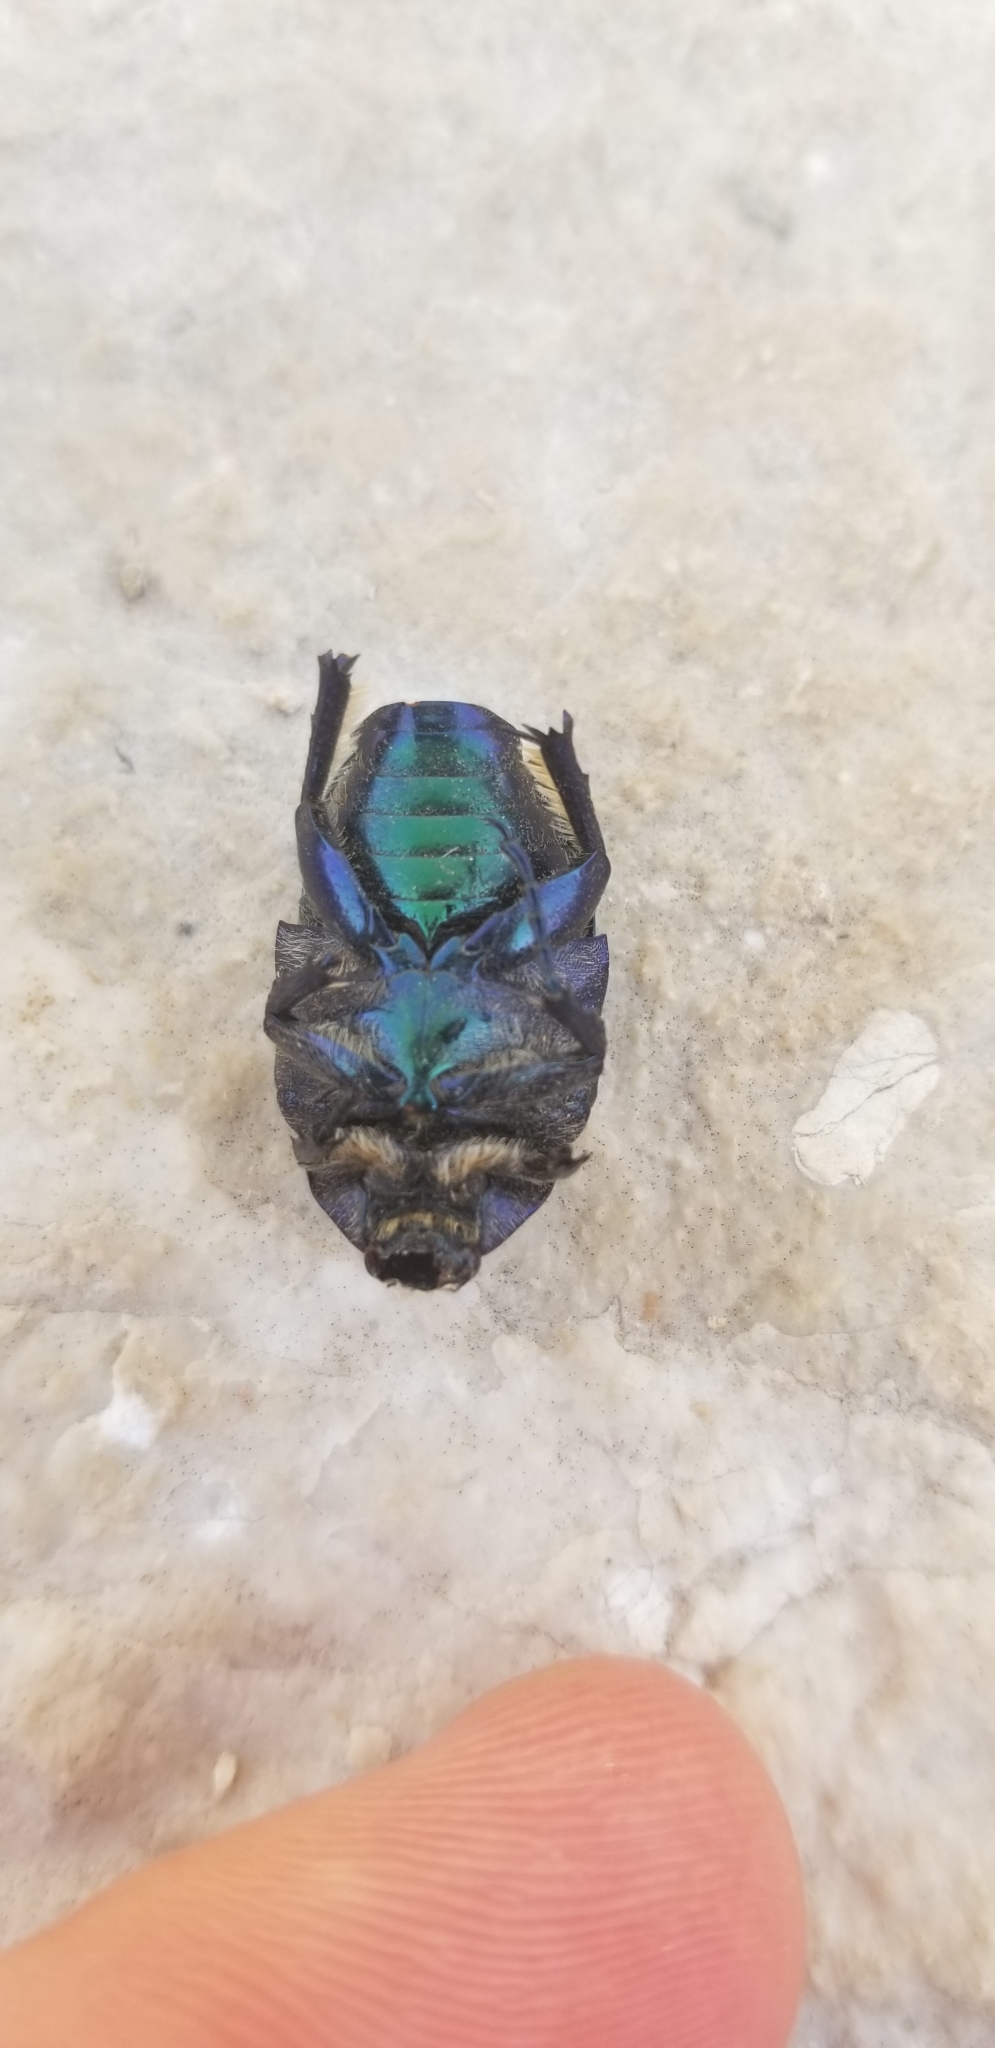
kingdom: Animalia
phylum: Arthropoda
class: Insecta
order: Coleoptera
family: Scarabaeidae
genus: Protaetia
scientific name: Protaetia angustata
